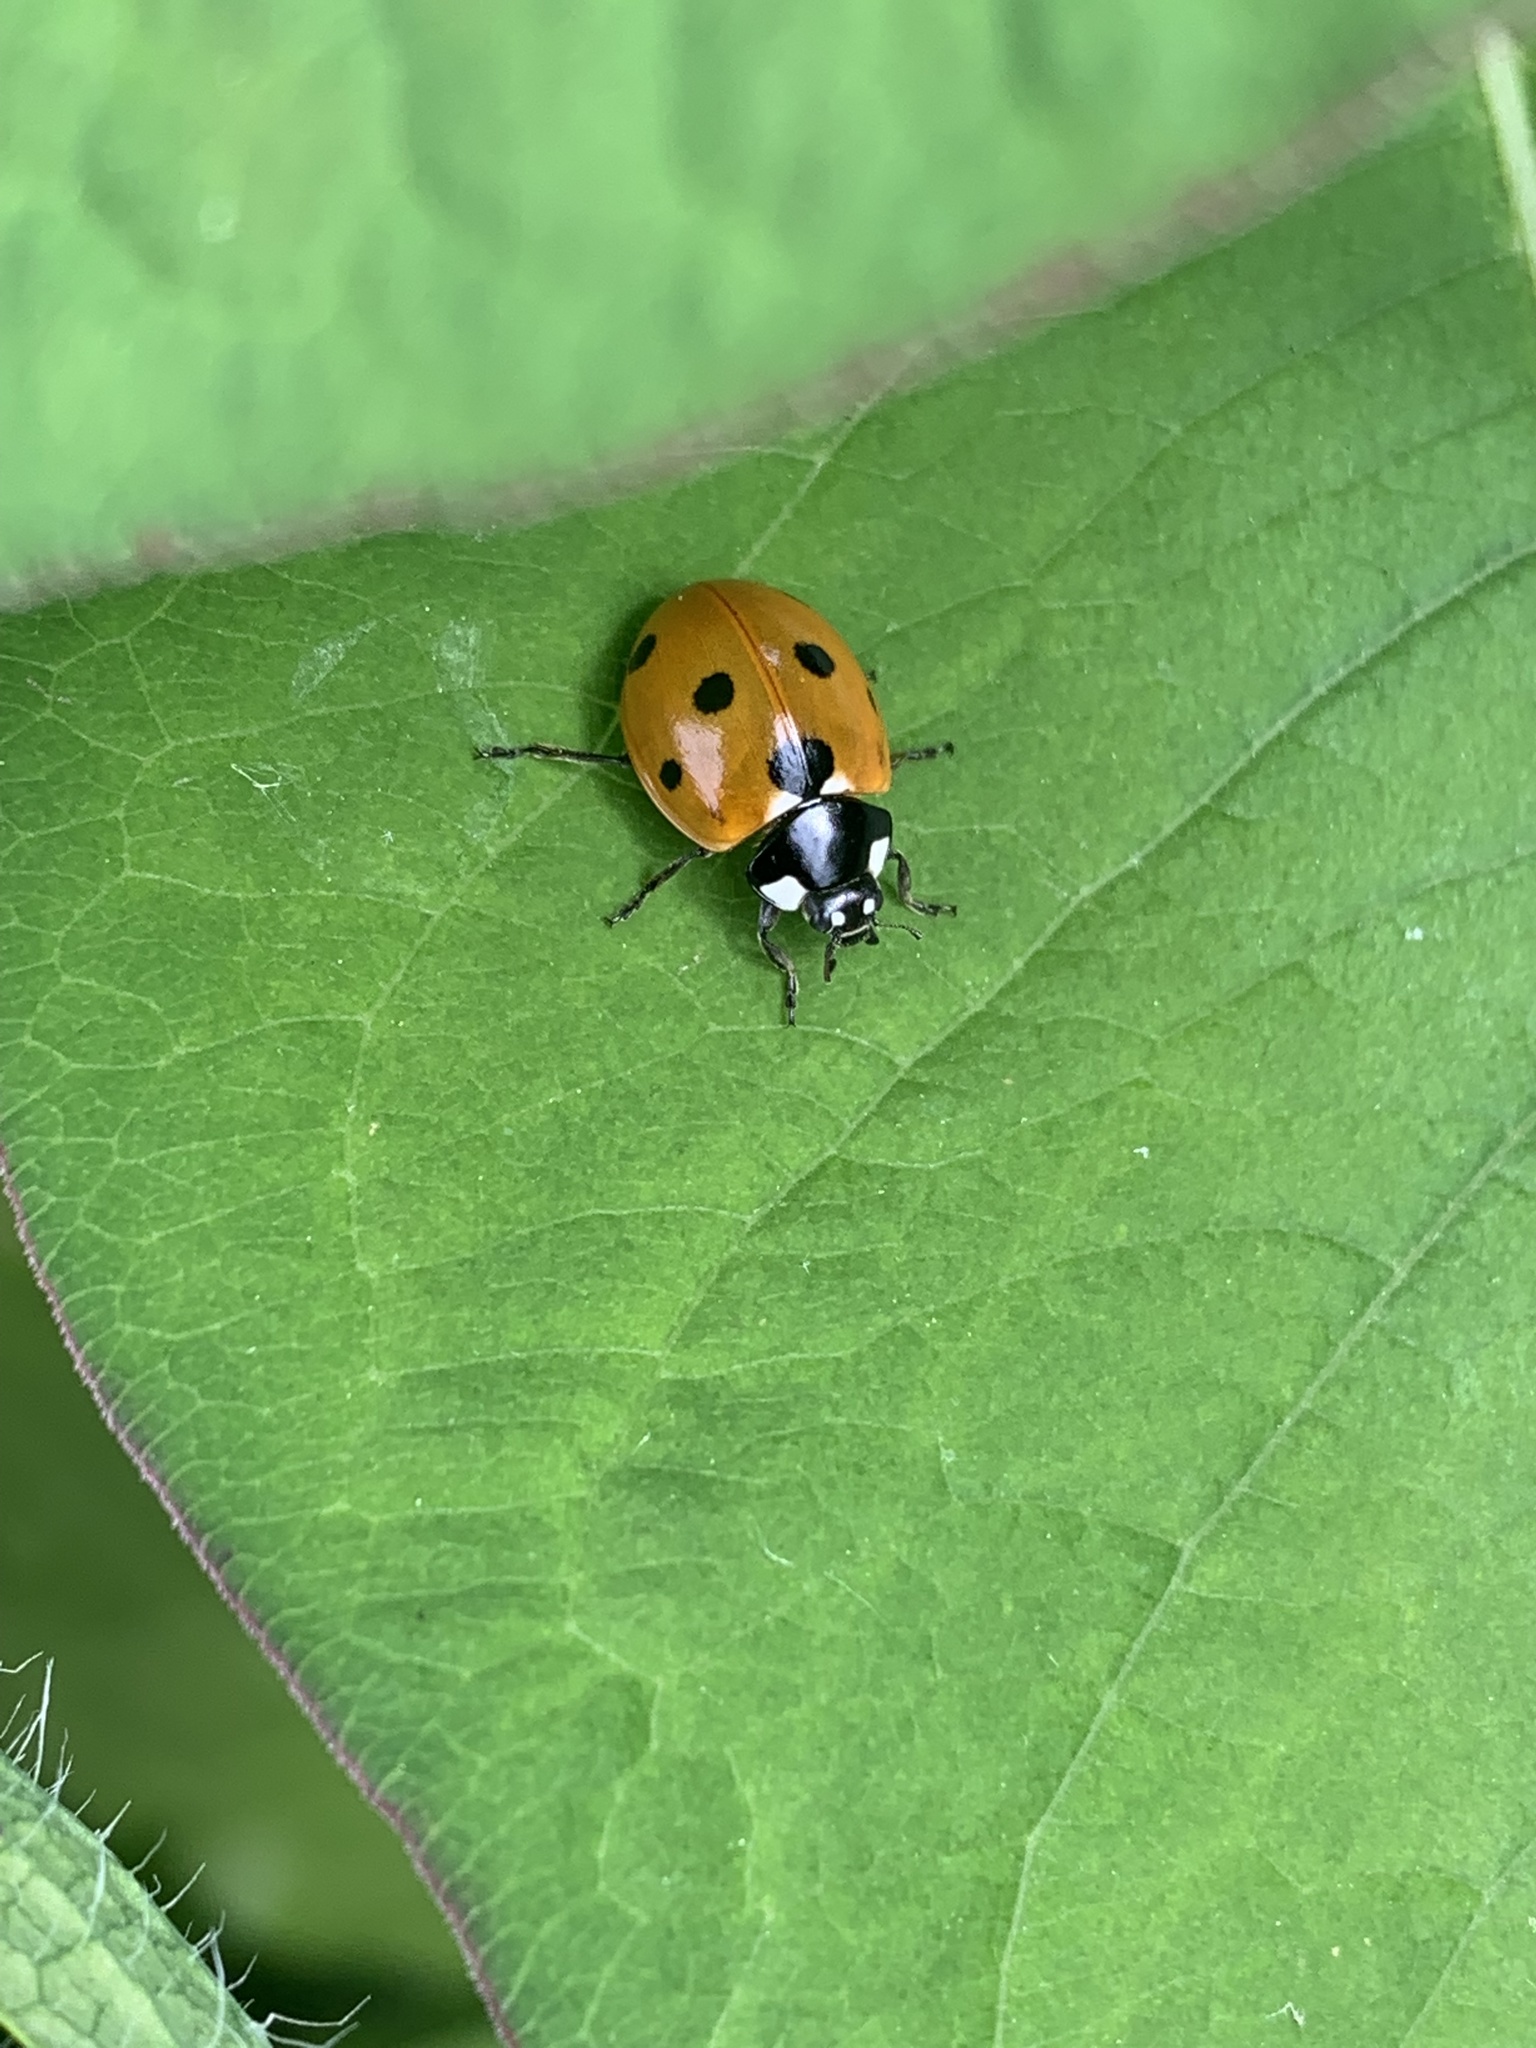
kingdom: Animalia
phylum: Arthropoda
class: Insecta
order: Coleoptera
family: Coccinellidae
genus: Coccinella
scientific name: Coccinella septempunctata
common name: Sevenspotted lady beetle
